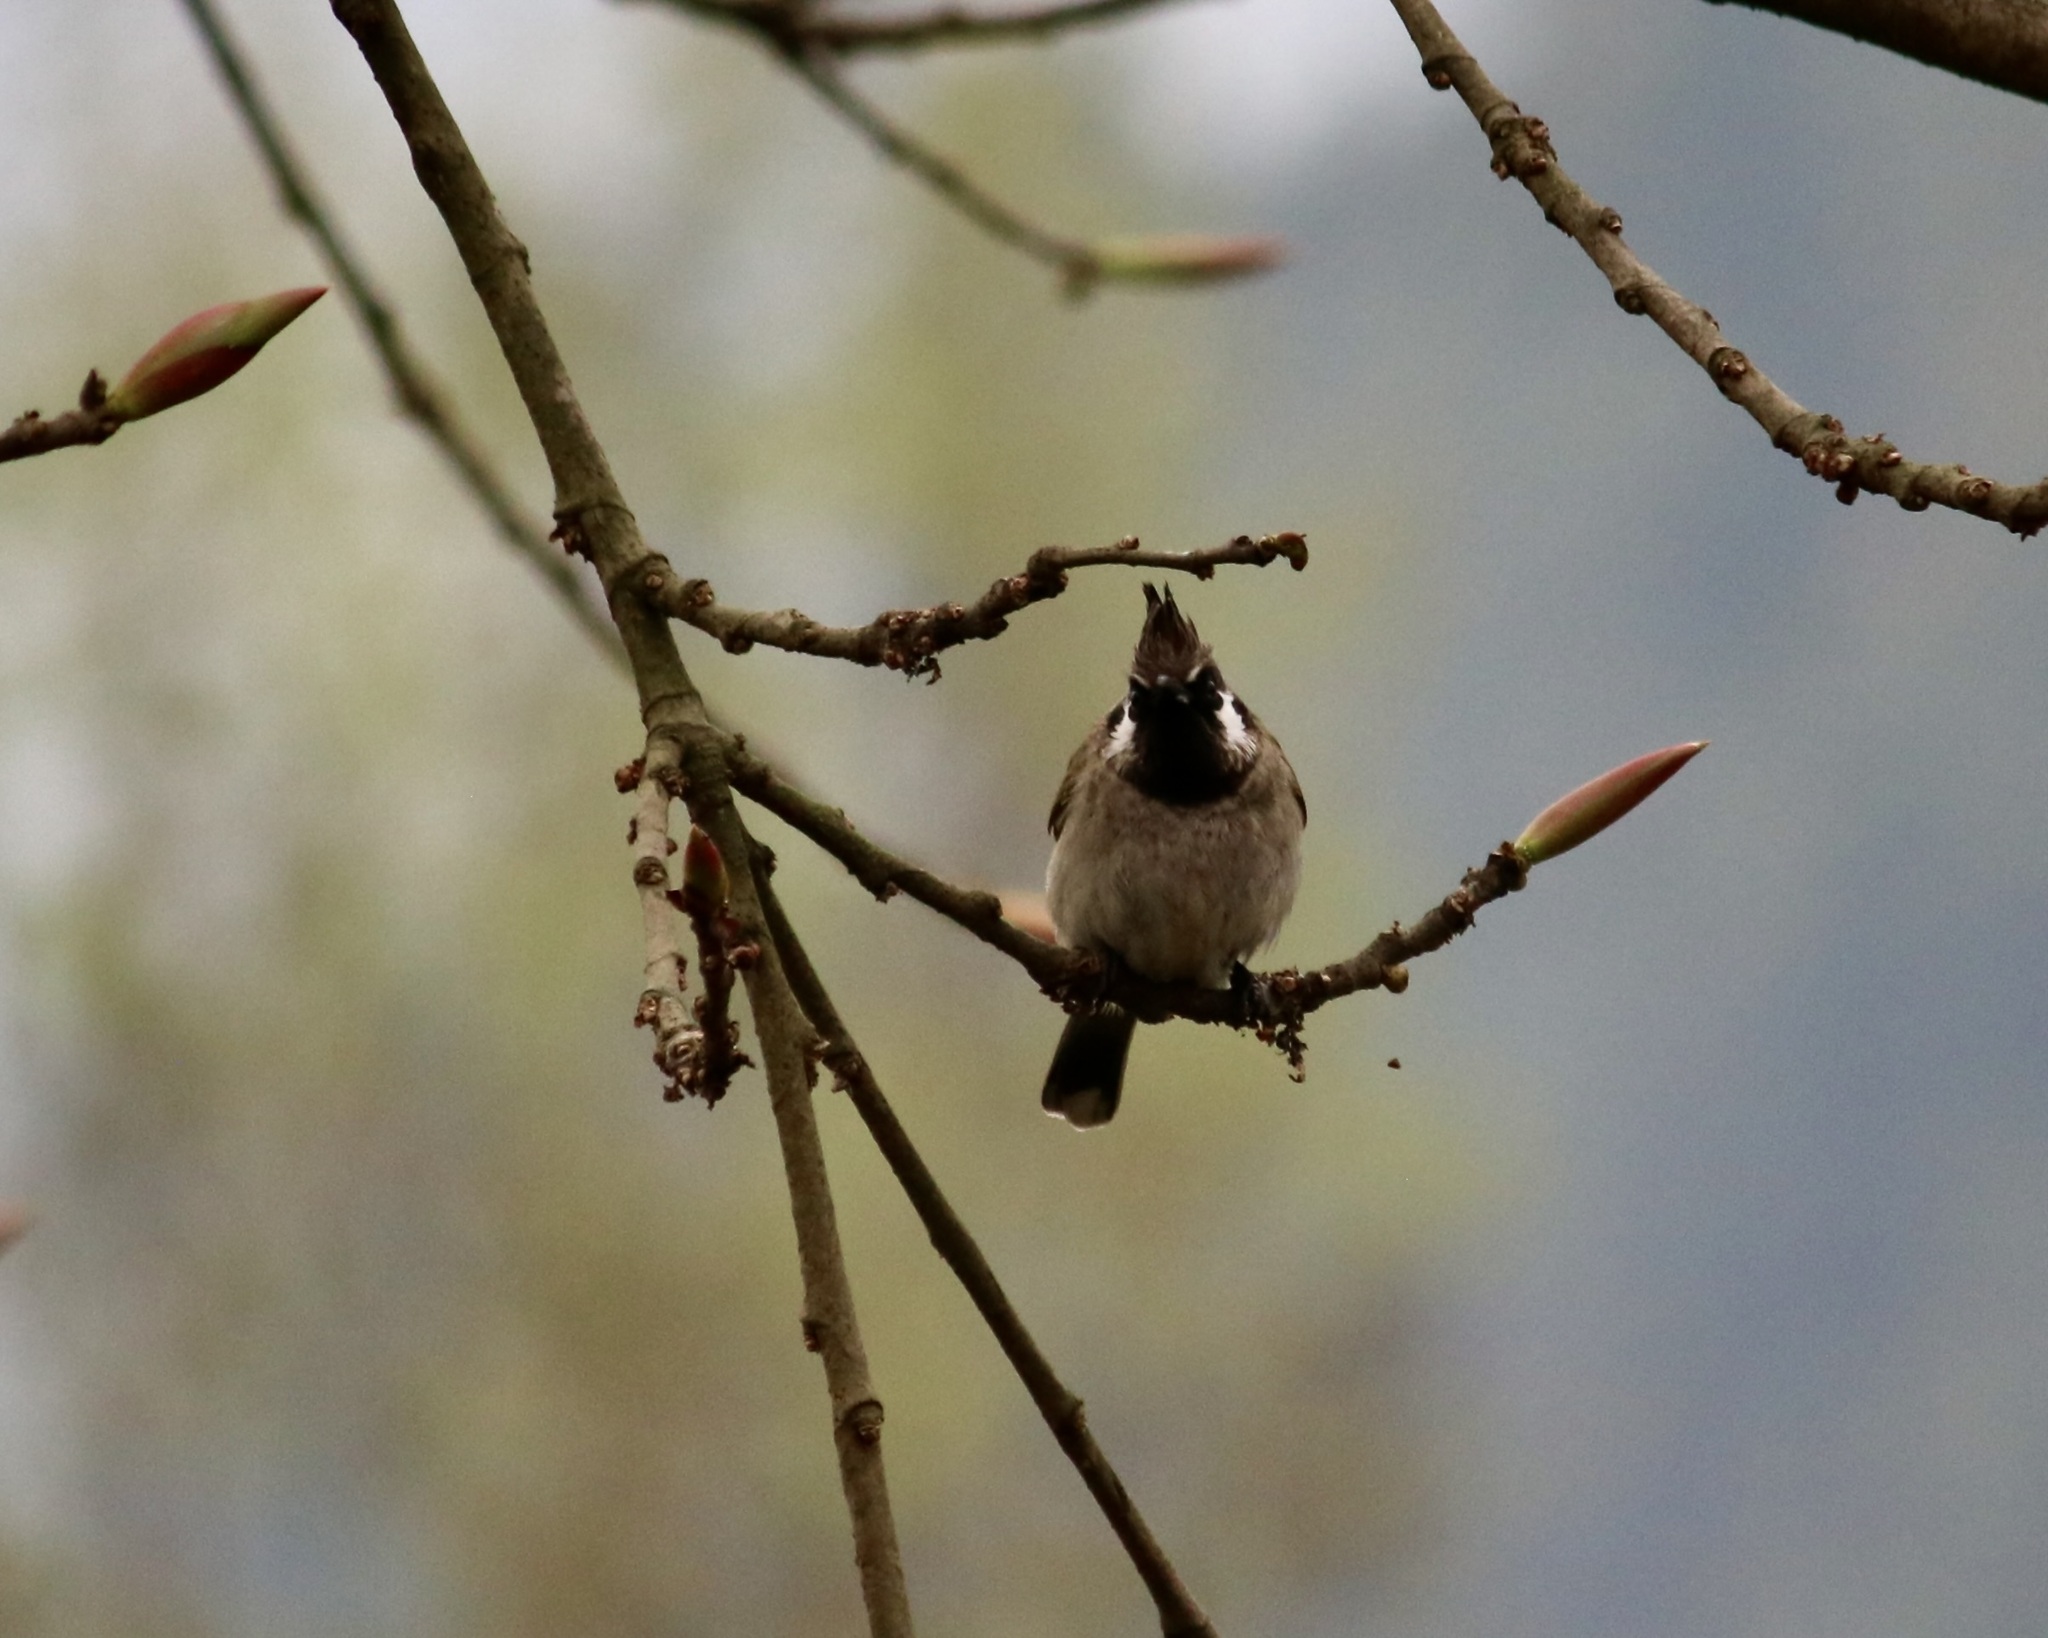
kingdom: Animalia
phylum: Chordata
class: Aves
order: Passeriformes
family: Pycnonotidae
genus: Pycnonotus
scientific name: Pycnonotus leucogenys
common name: Himalayan bulbul
